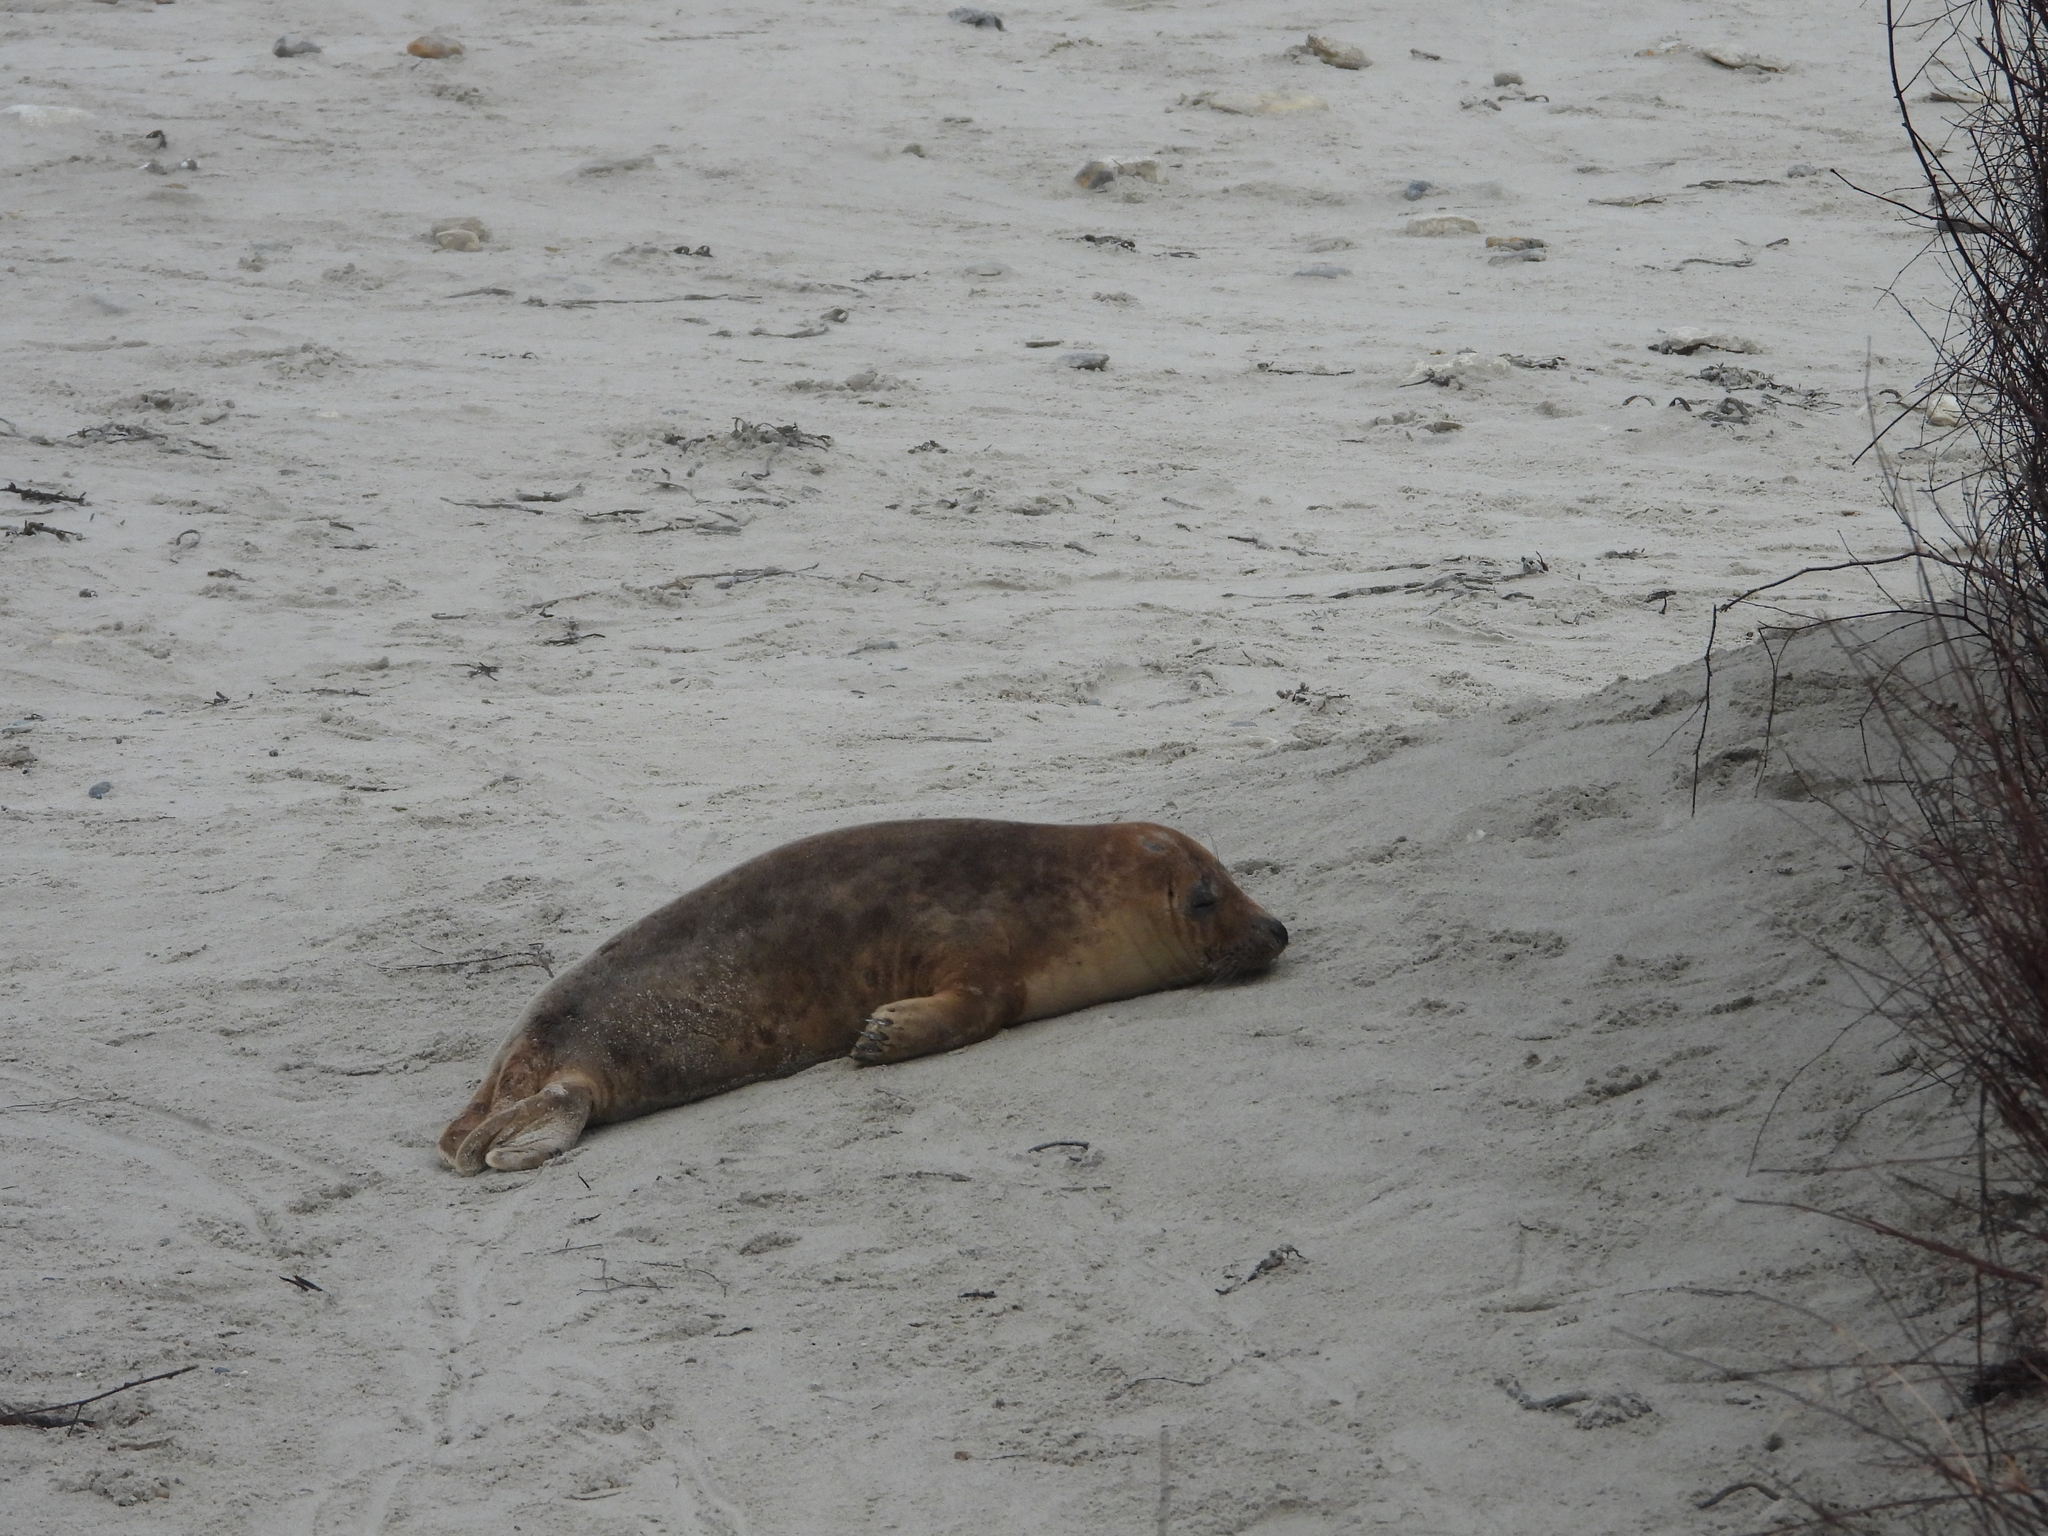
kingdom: Animalia
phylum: Chordata
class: Mammalia
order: Carnivora
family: Phocidae
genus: Halichoerus
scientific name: Halichoerus grypus
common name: Grey seal
